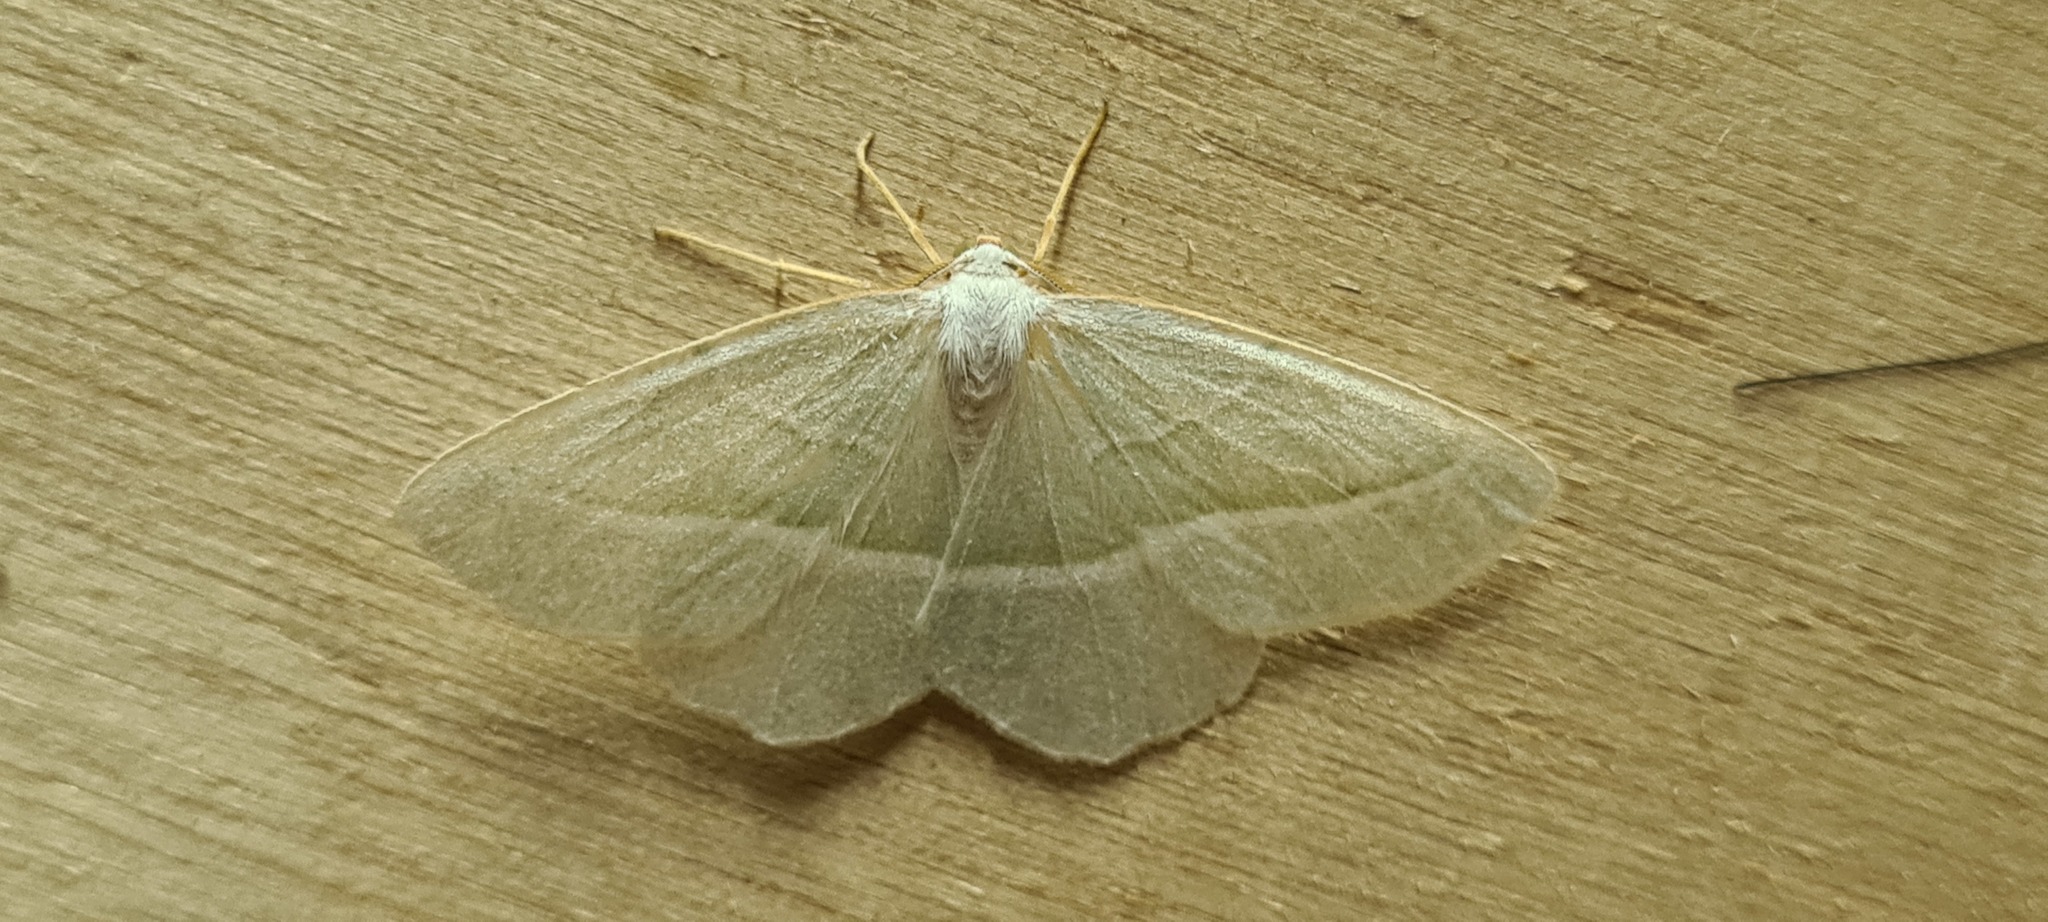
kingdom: Animalia
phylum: Arthropoda
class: Insecta
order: Lepidoptera
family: Geometridae
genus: Campaea
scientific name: Campaea margaritaria
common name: Light emerald
